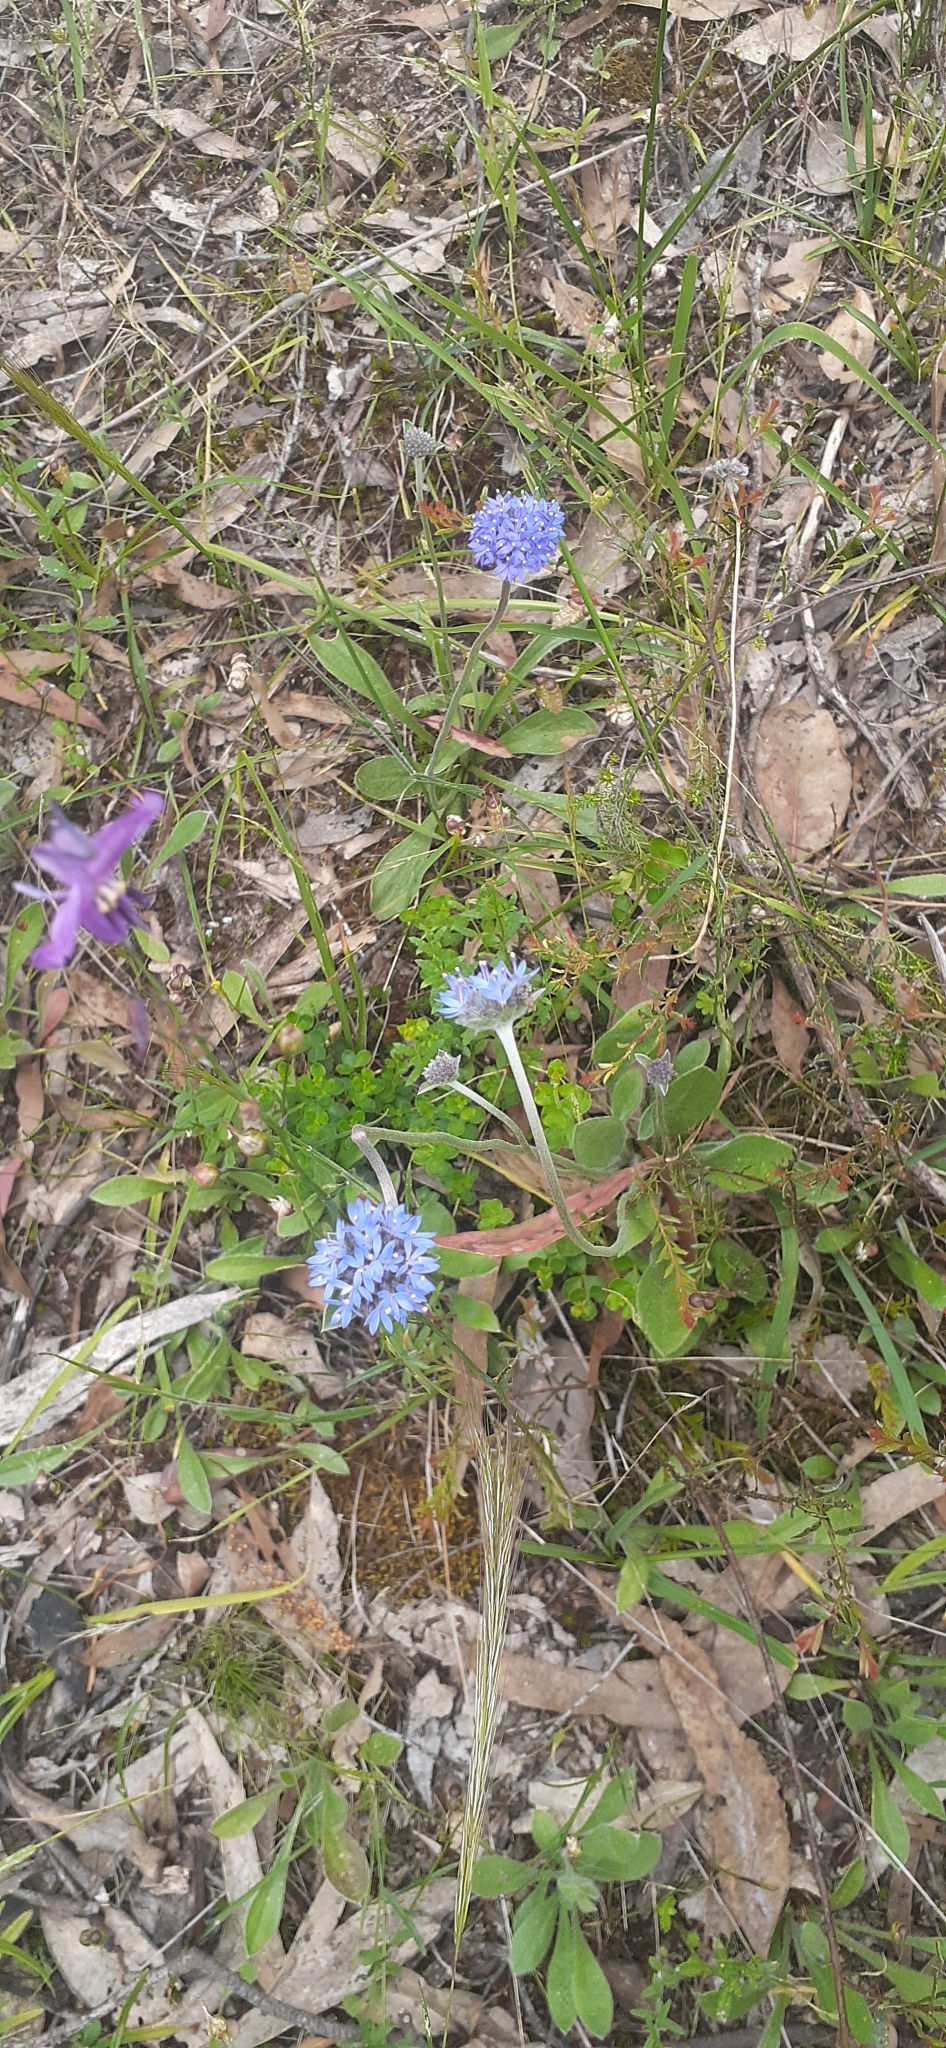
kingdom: Plantae
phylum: Tracheophyta
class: Magnoliopsida
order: Asterales
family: Goodeniaceae
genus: Brunonia
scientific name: Brunonia australis
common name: Blue pincushion
